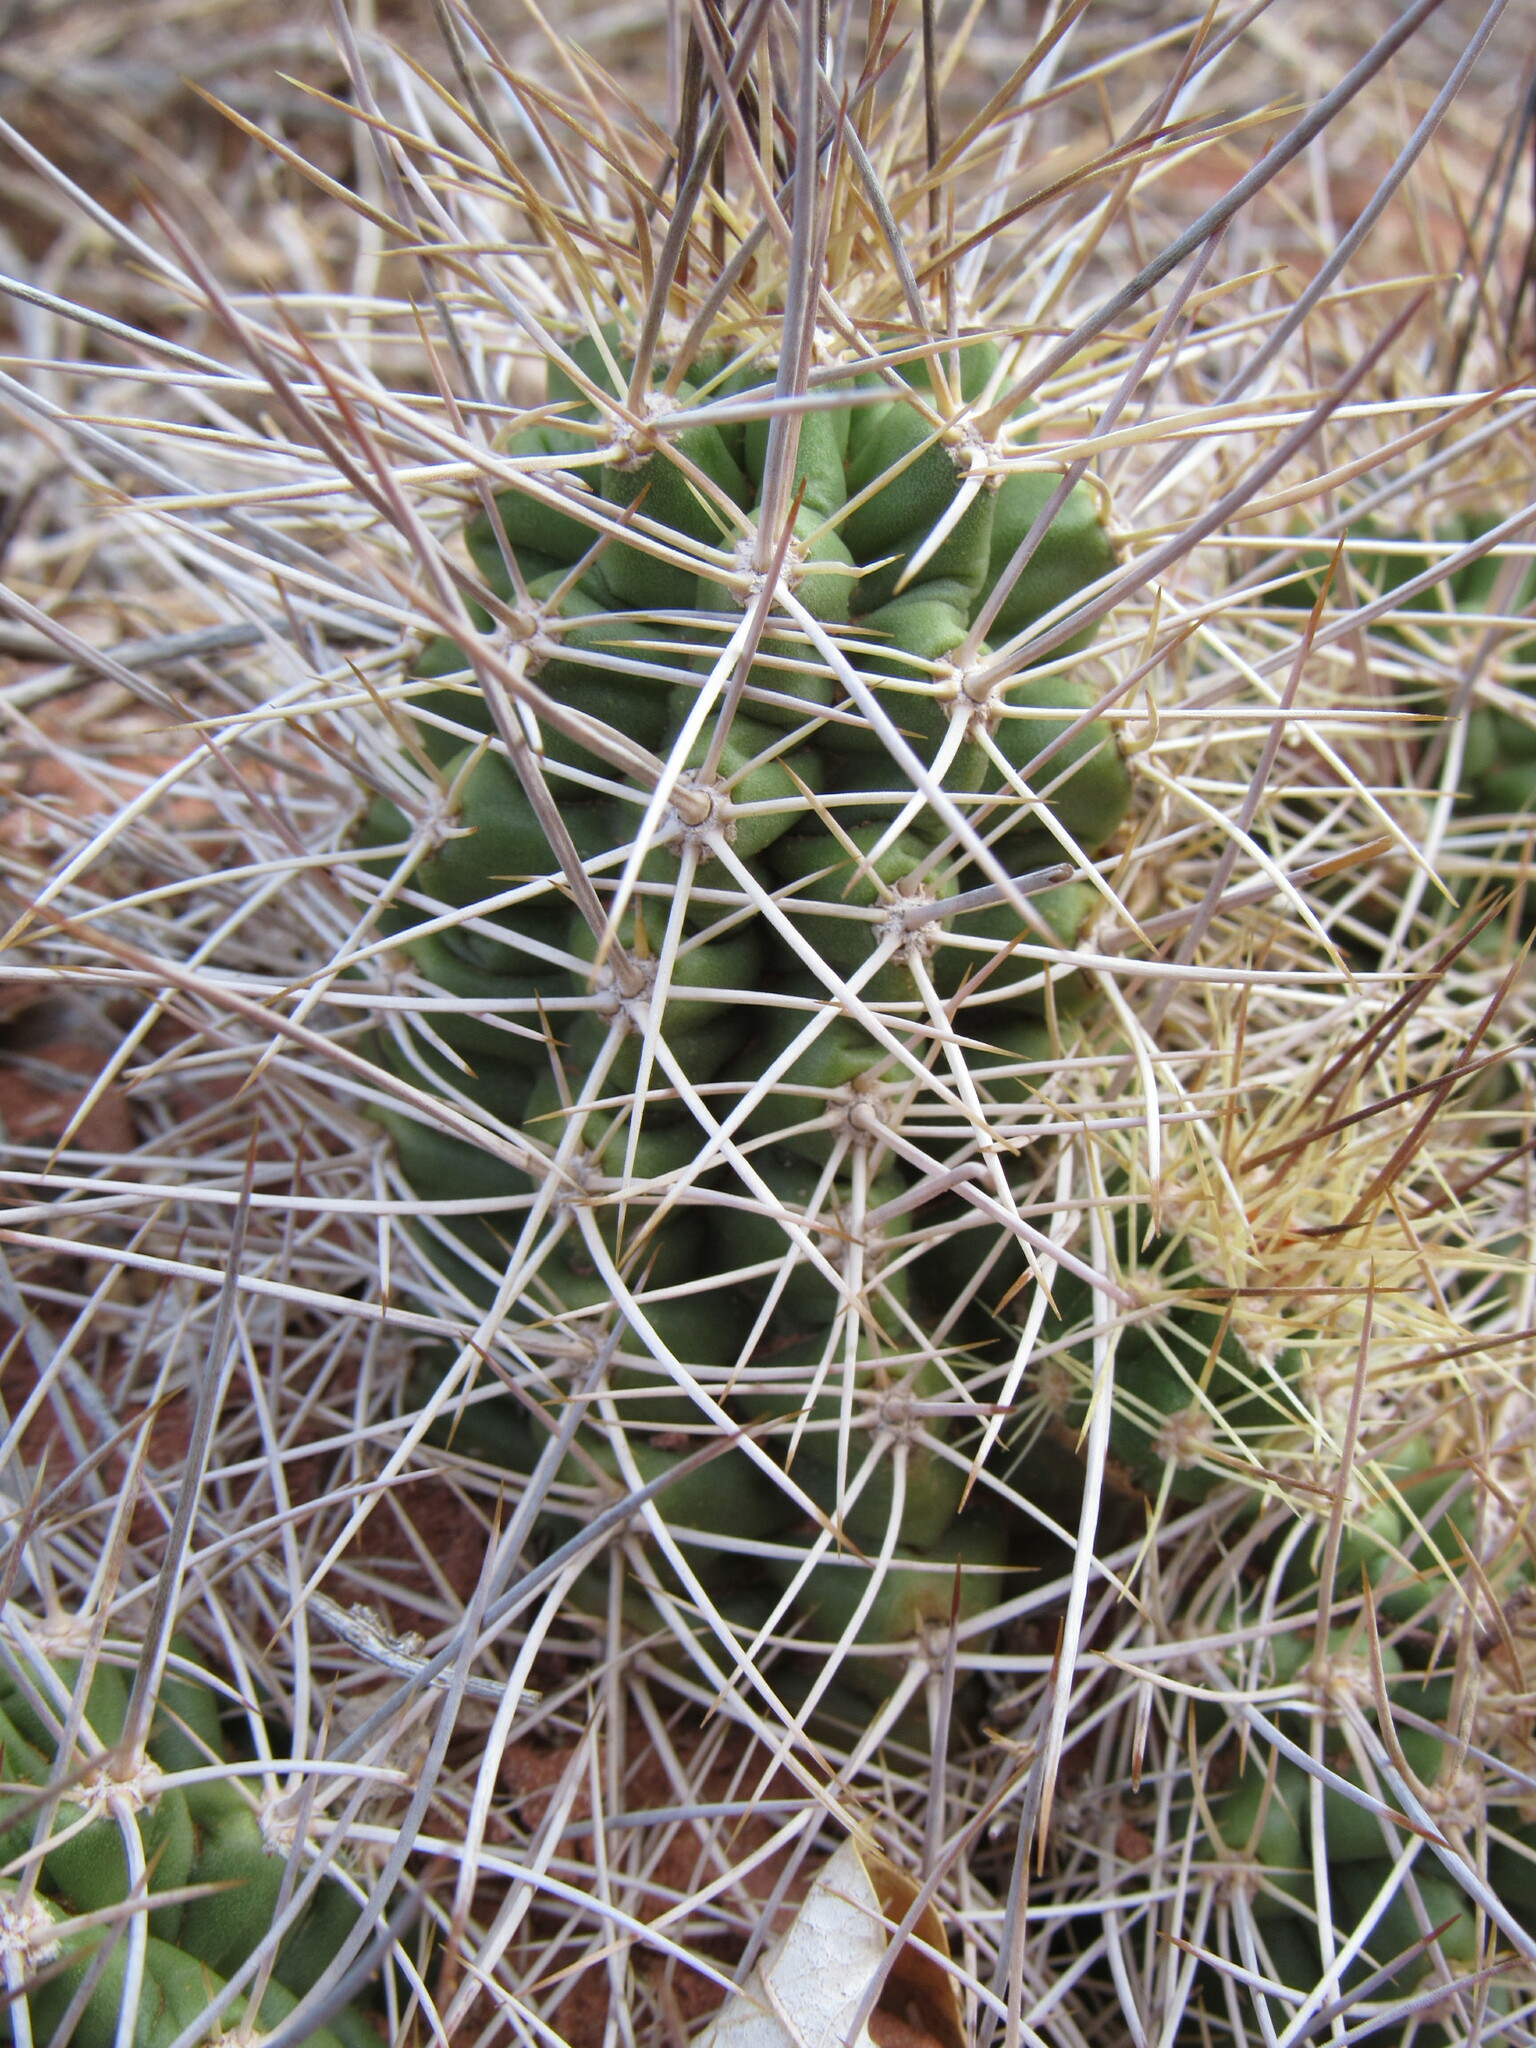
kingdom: Plantae
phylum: Tracheophyta
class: Magnoliopsida
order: Caryophyllales
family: Cactaceae
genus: Echinocereus
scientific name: Echinocereus triglochidiatus
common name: Claretcup hedgehog
